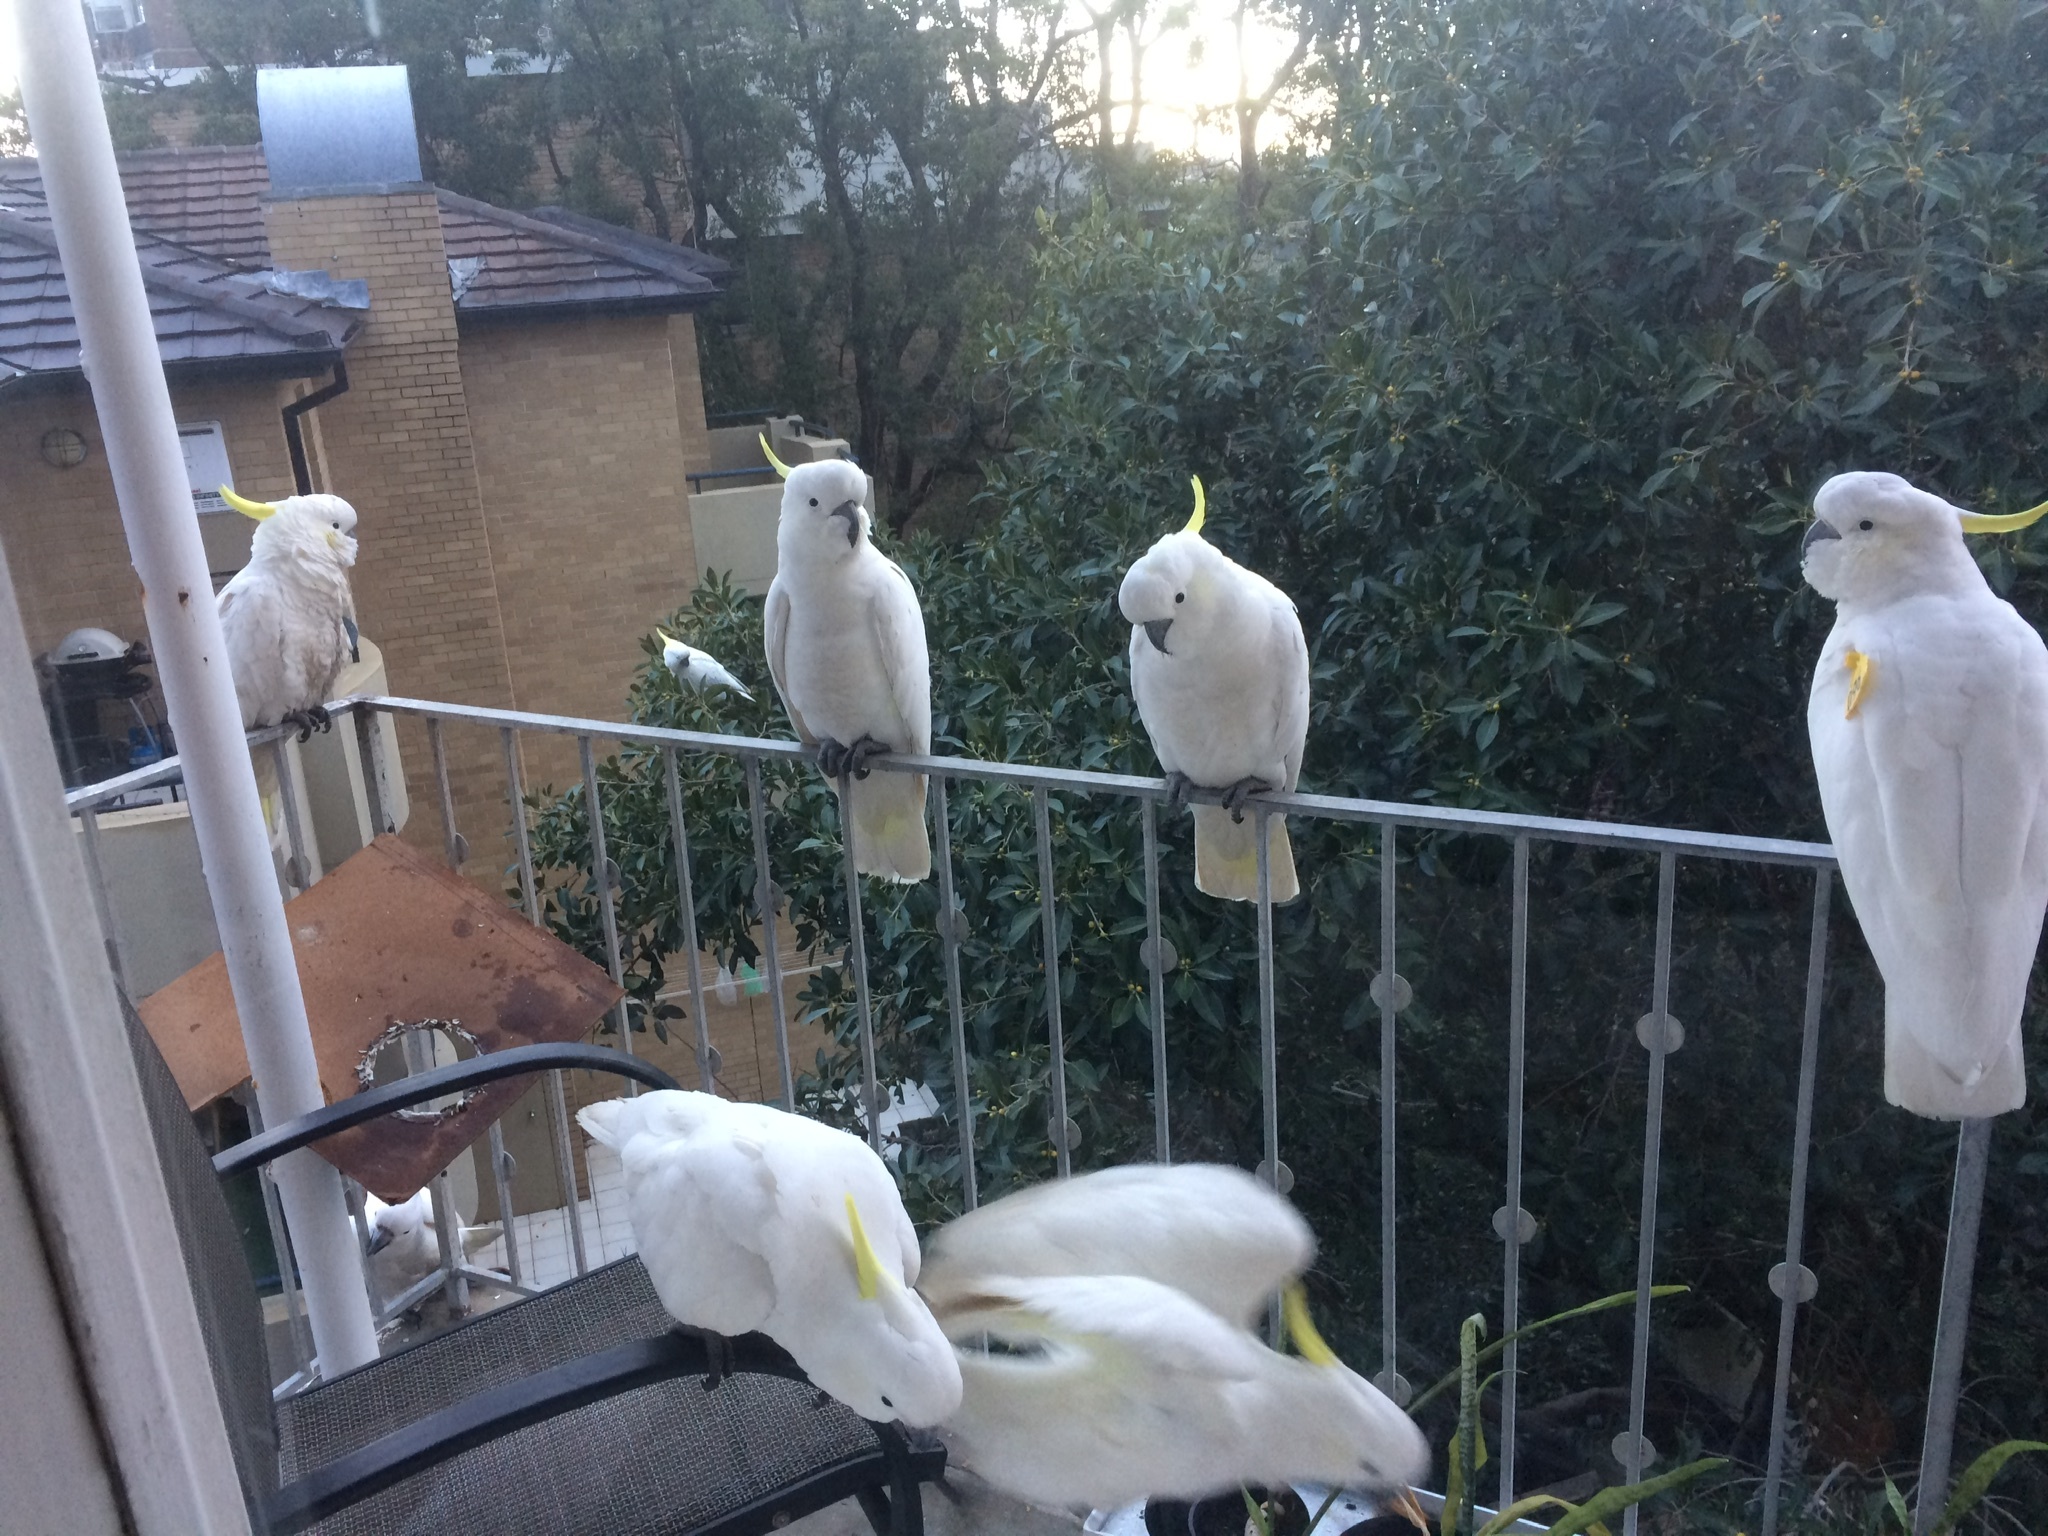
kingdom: Animalia
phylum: Chordata
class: Aves
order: Psittaciformes
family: Psittacidae
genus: Cacatua
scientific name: Cacatua galerita
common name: Sulphur-crested cockatoo
